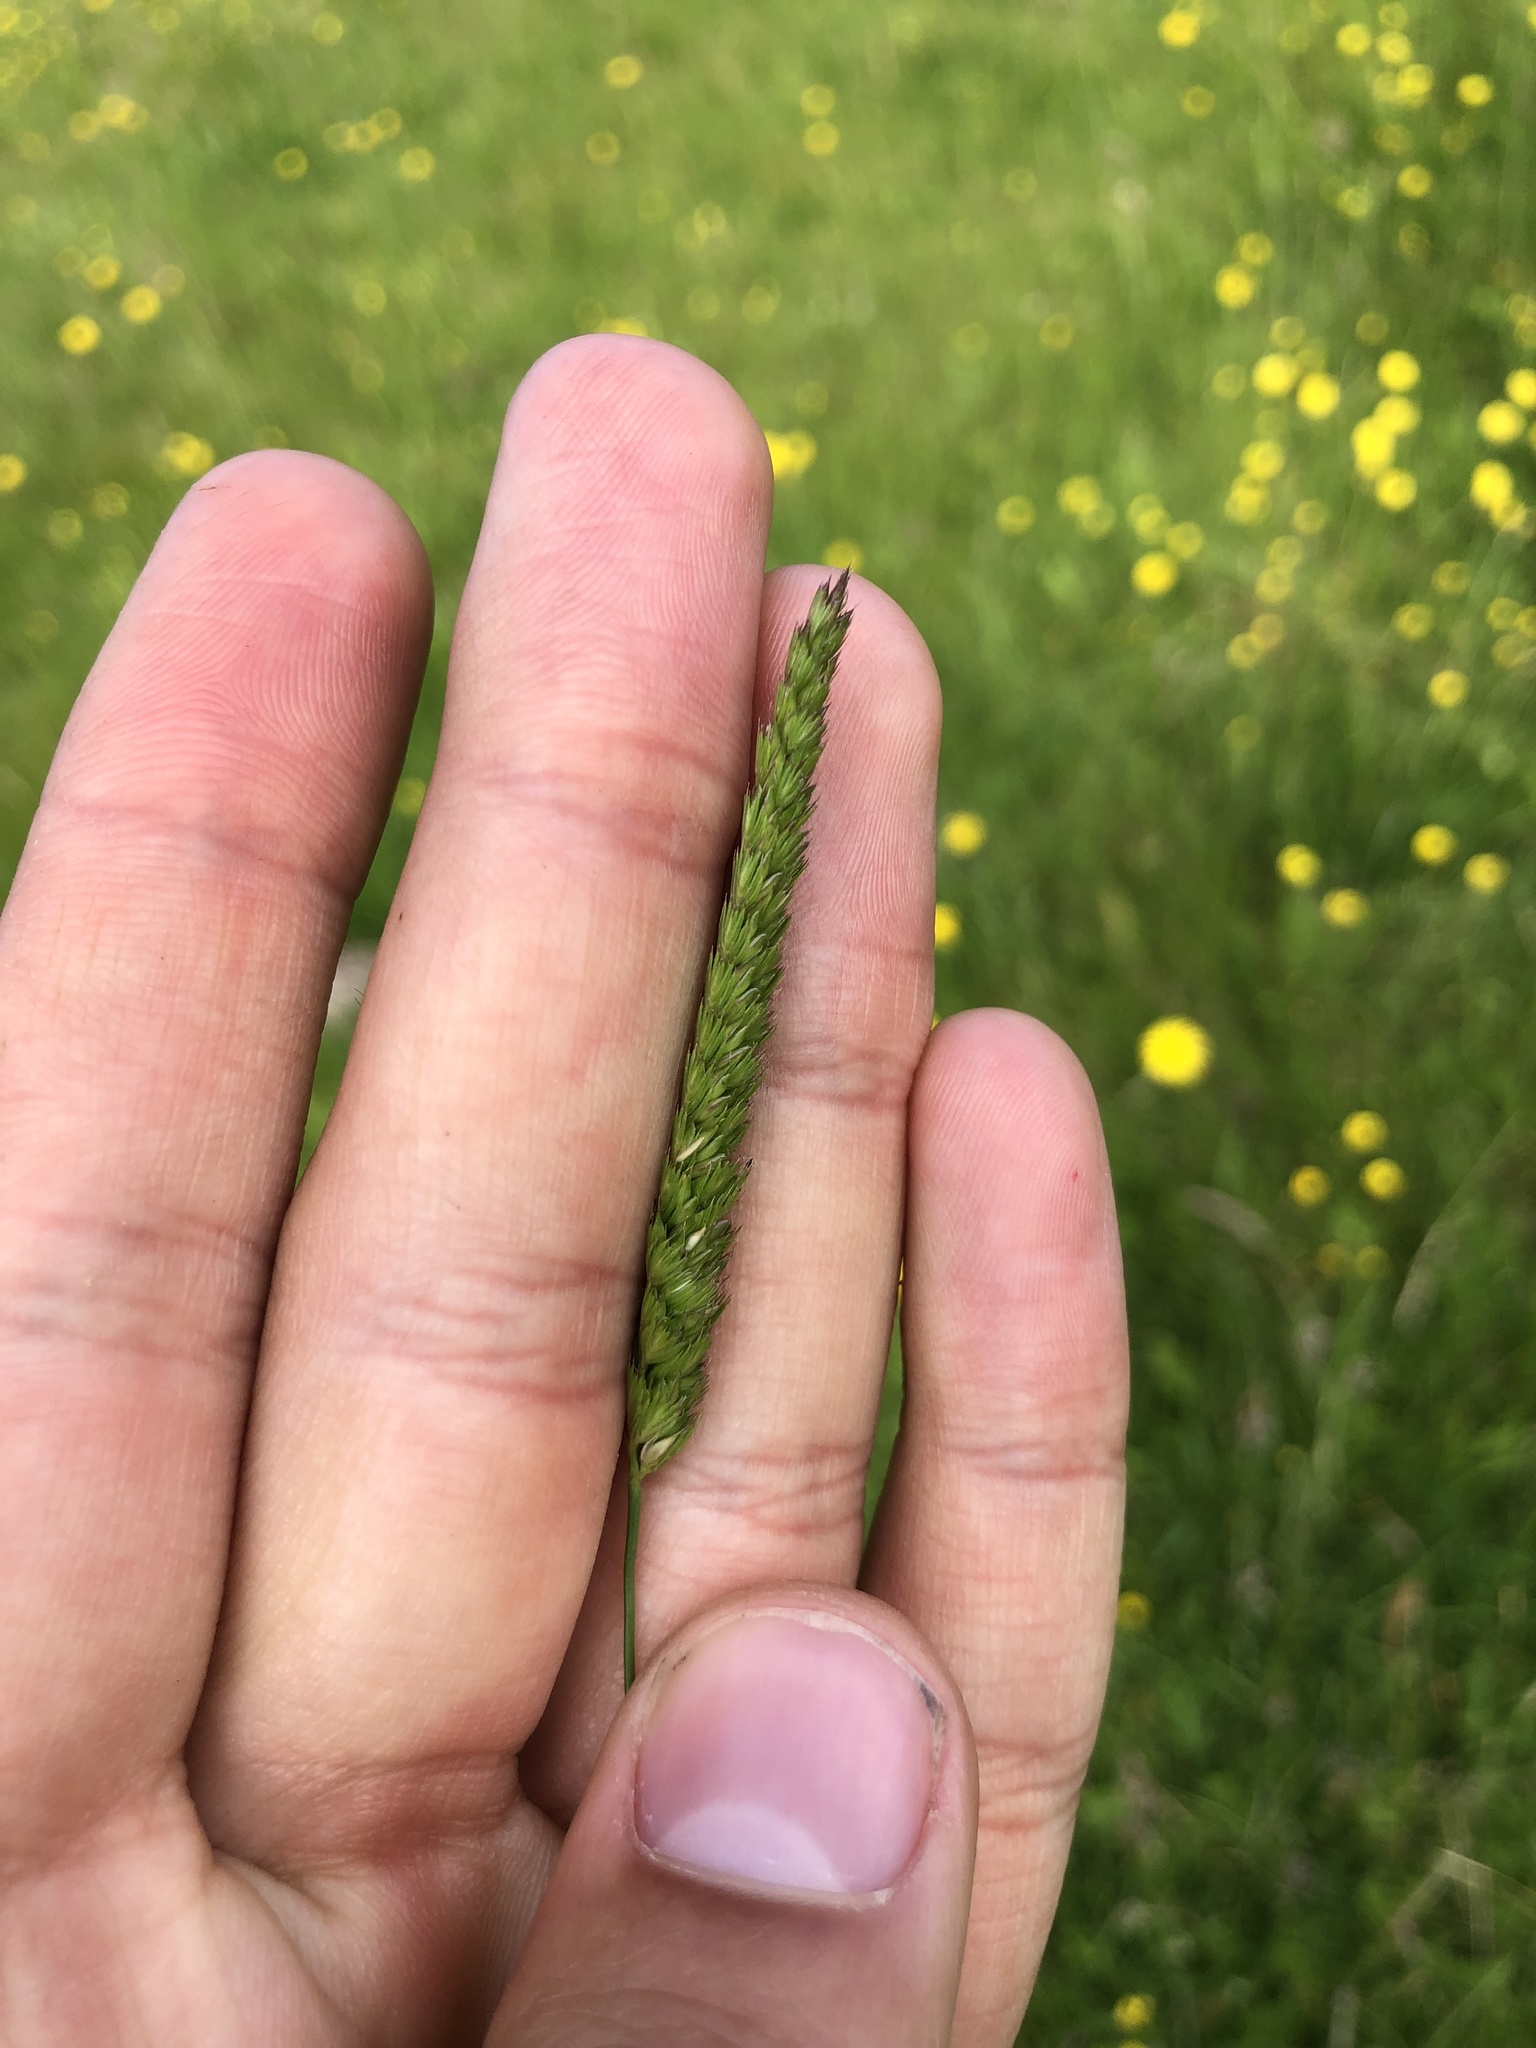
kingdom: Plantae
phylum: Tracheophyta
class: Liliopsida
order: Poales
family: Poaceae
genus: Cynosurus
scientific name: Cynosurus cristatus
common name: Crested dog's-tail
